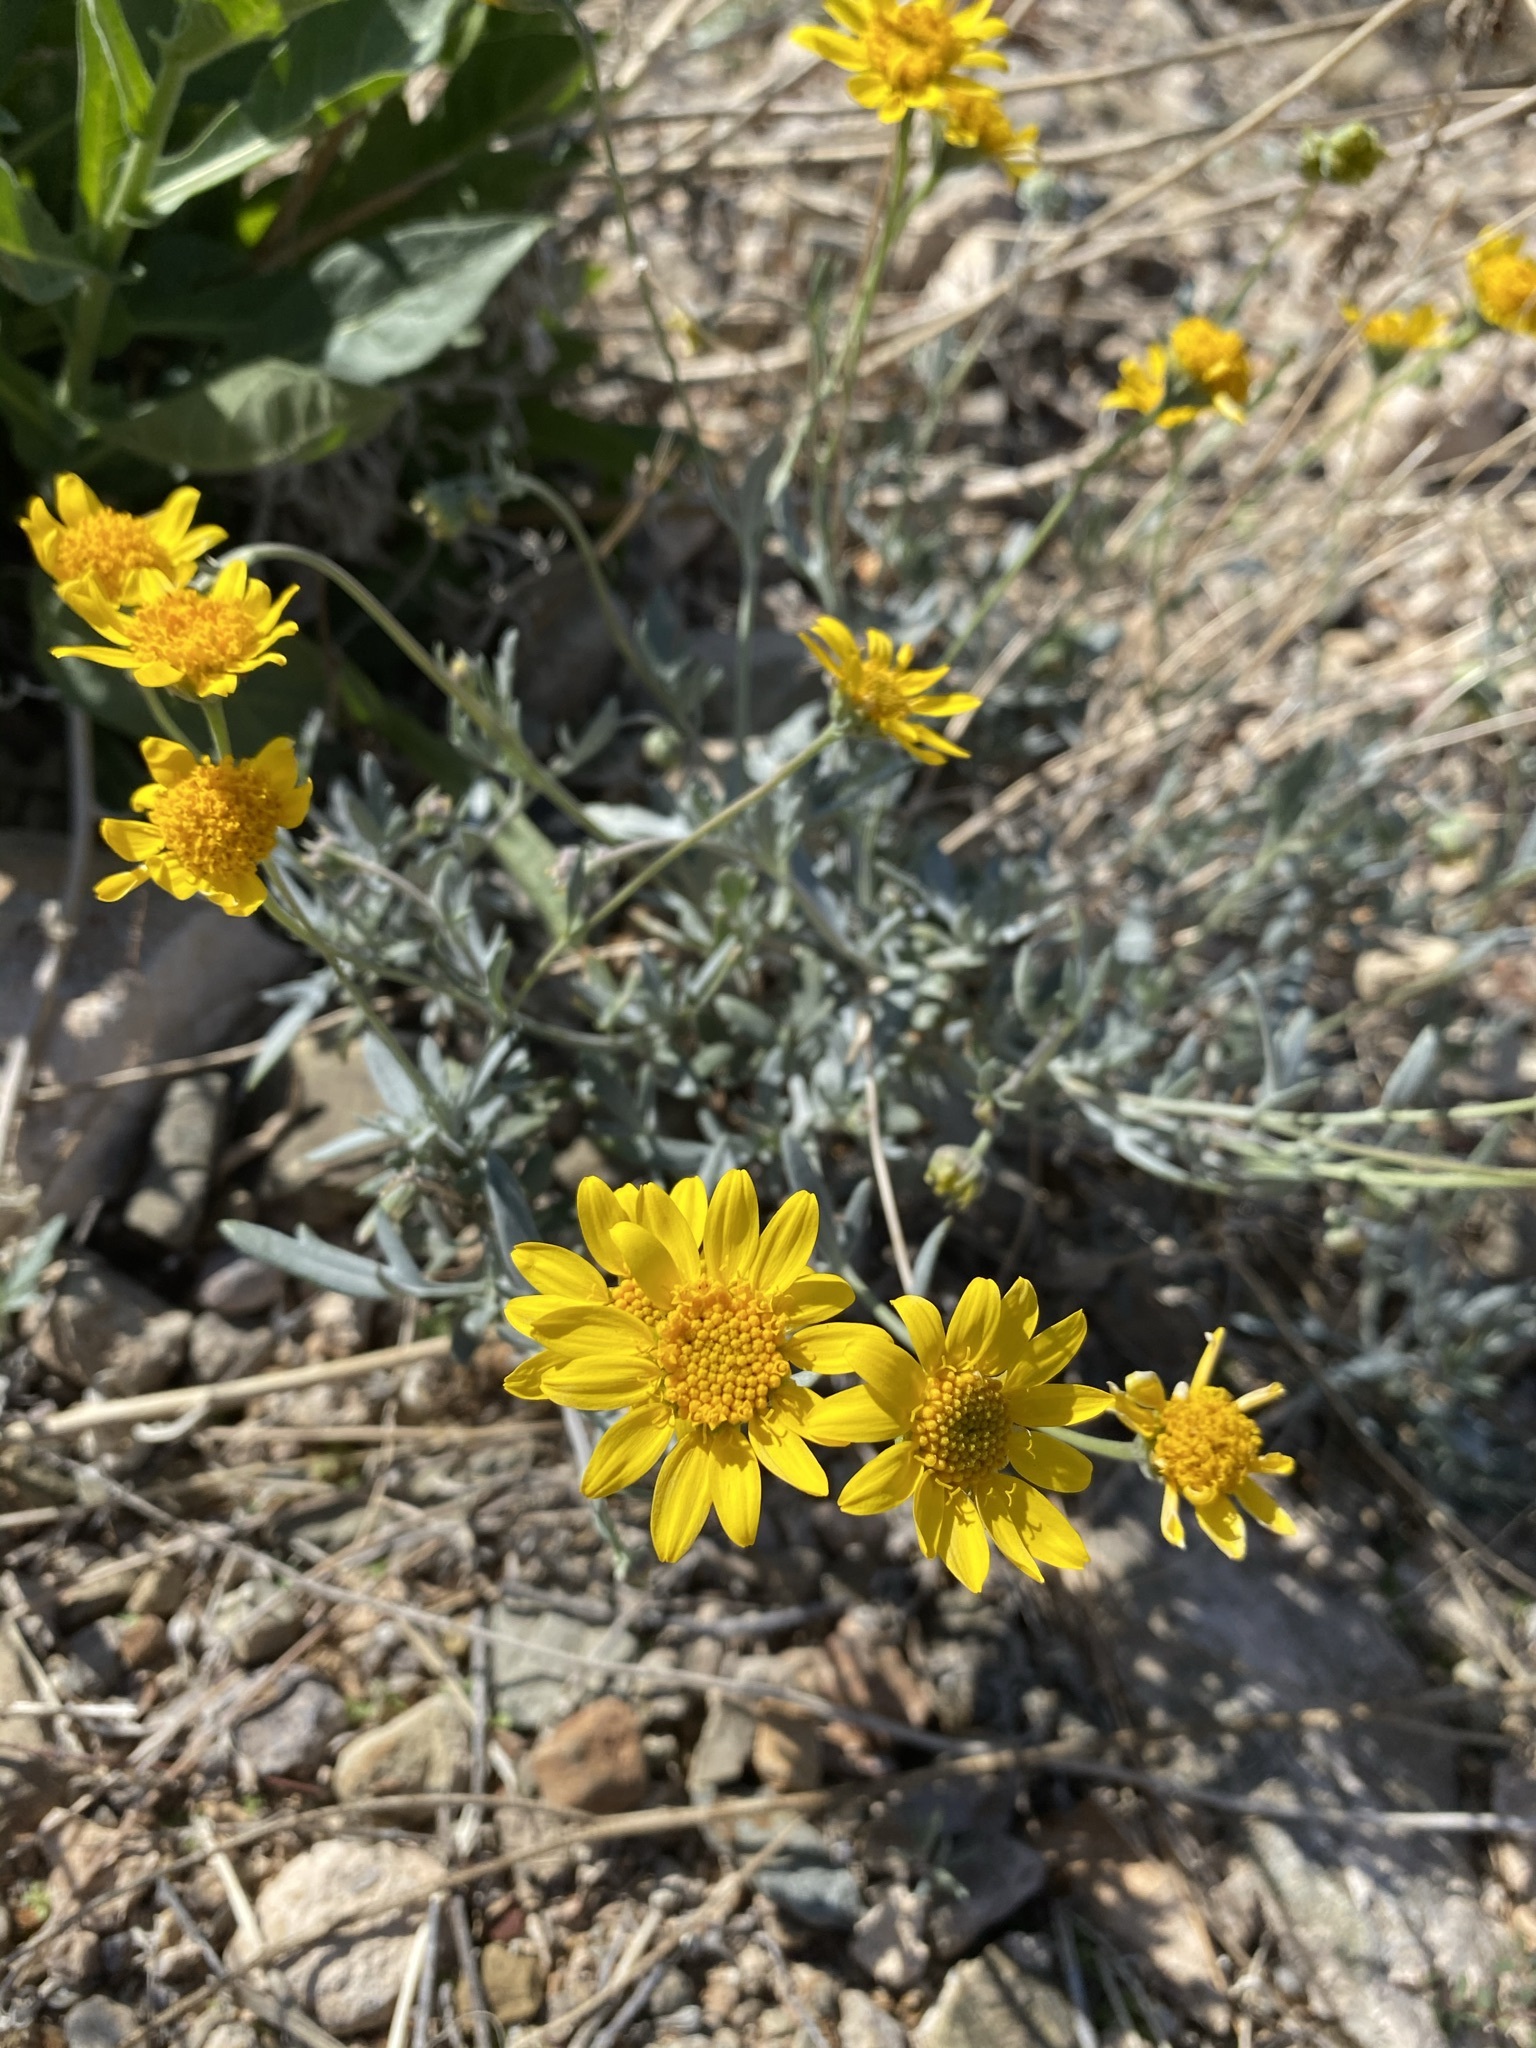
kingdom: Plantae
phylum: Tracheophyta
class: Magnoliopsida
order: Asterales
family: Asteraceae
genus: Picradeniopsis
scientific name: Picradeniopsis absinthifolia
